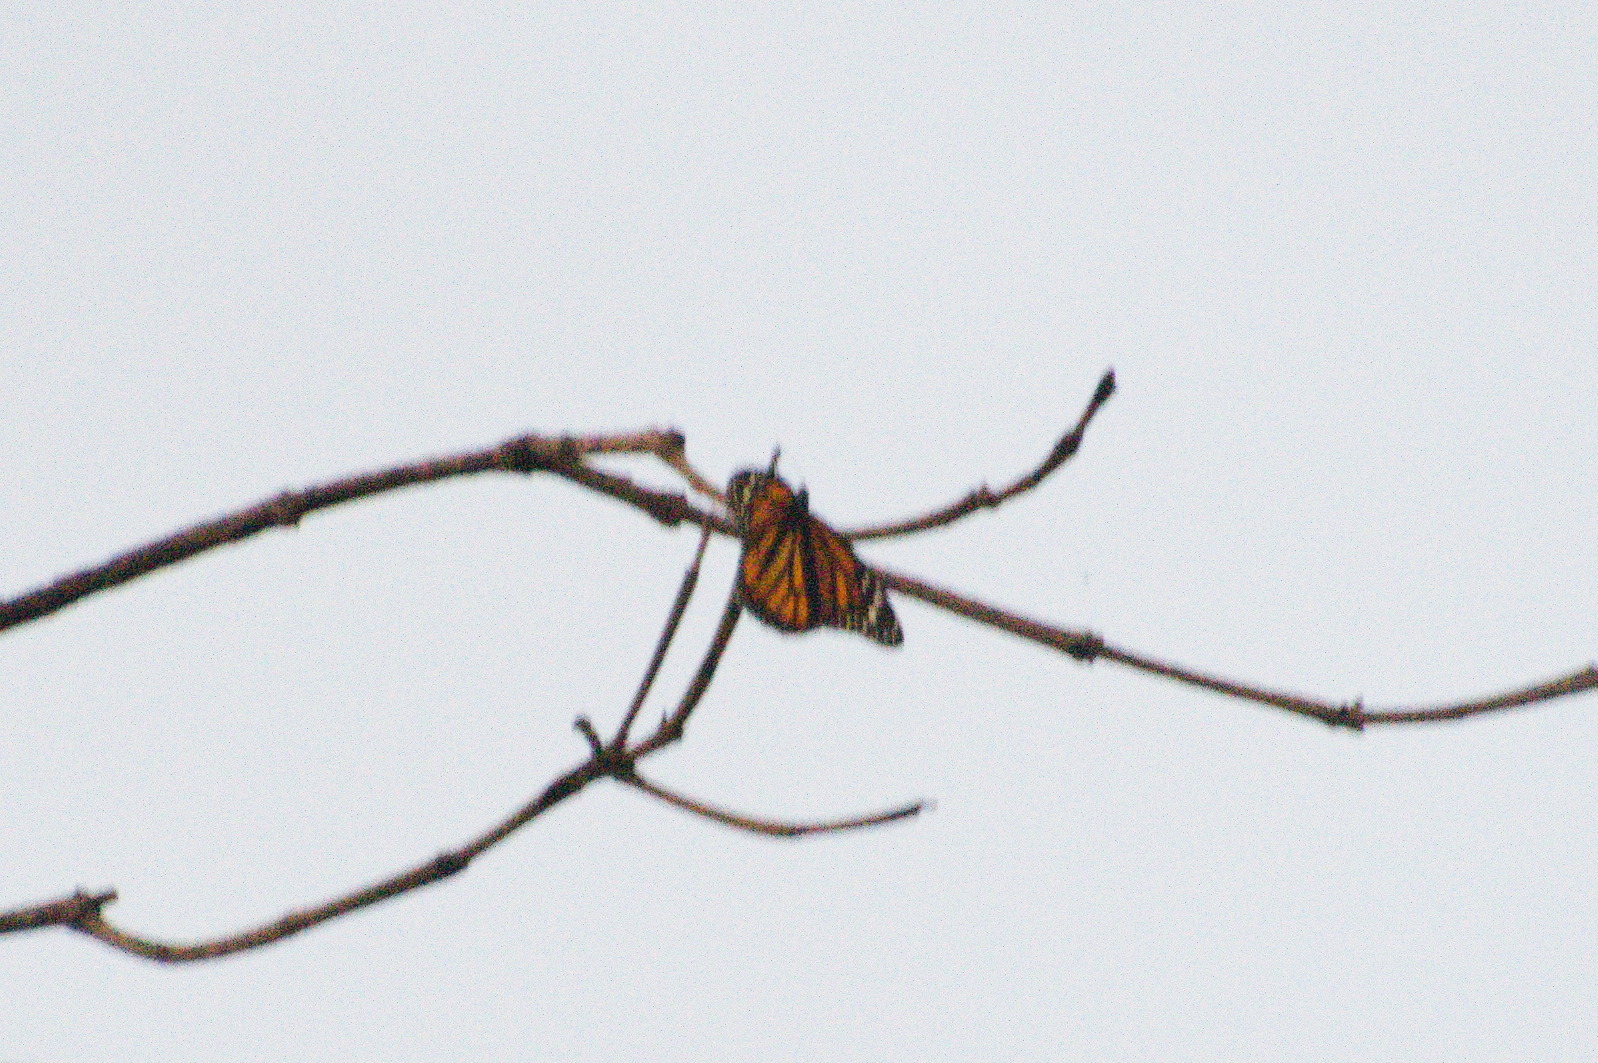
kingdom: Animalia
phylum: Arthropoda
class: Insecta
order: Lepidoptera
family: Nymphalidae
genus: Danaus
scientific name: Danaus plexippus
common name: Monarch
